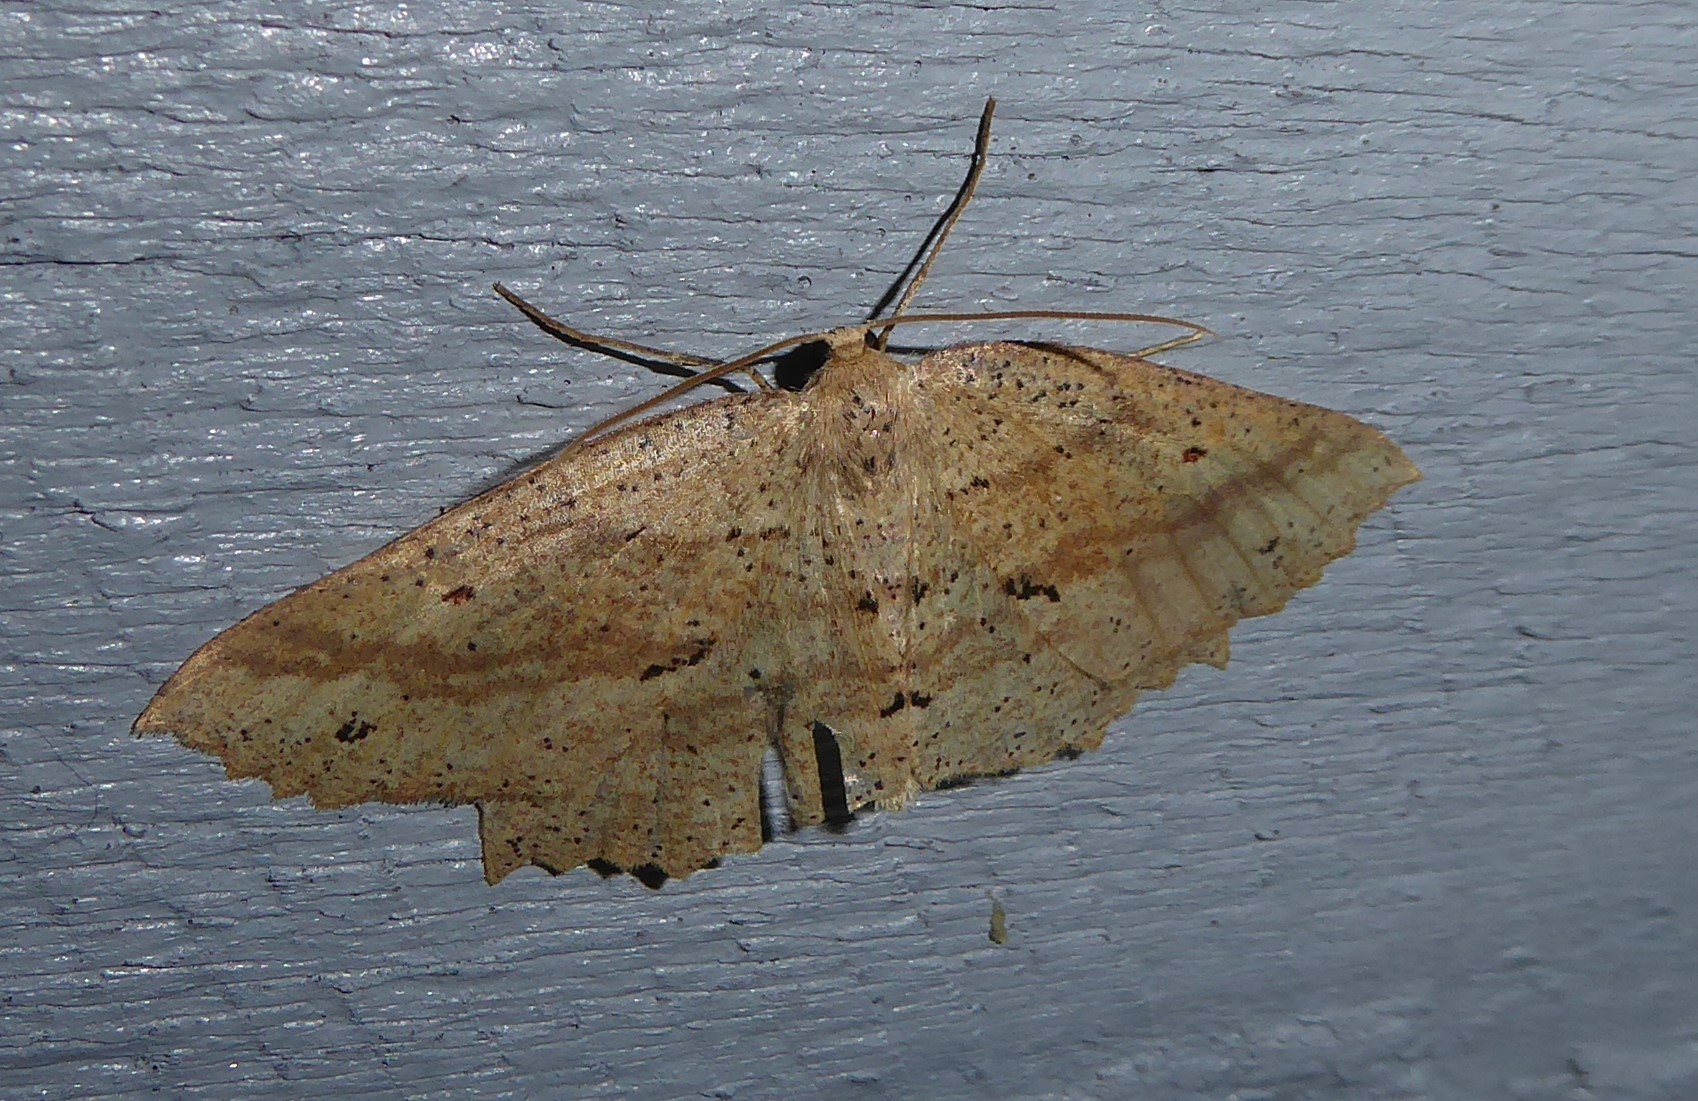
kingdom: Animalia
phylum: Arthropoda
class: Insecta
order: Lepidoptera
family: Geometridae
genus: Xyridacma
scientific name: Xyridacma veronicae
